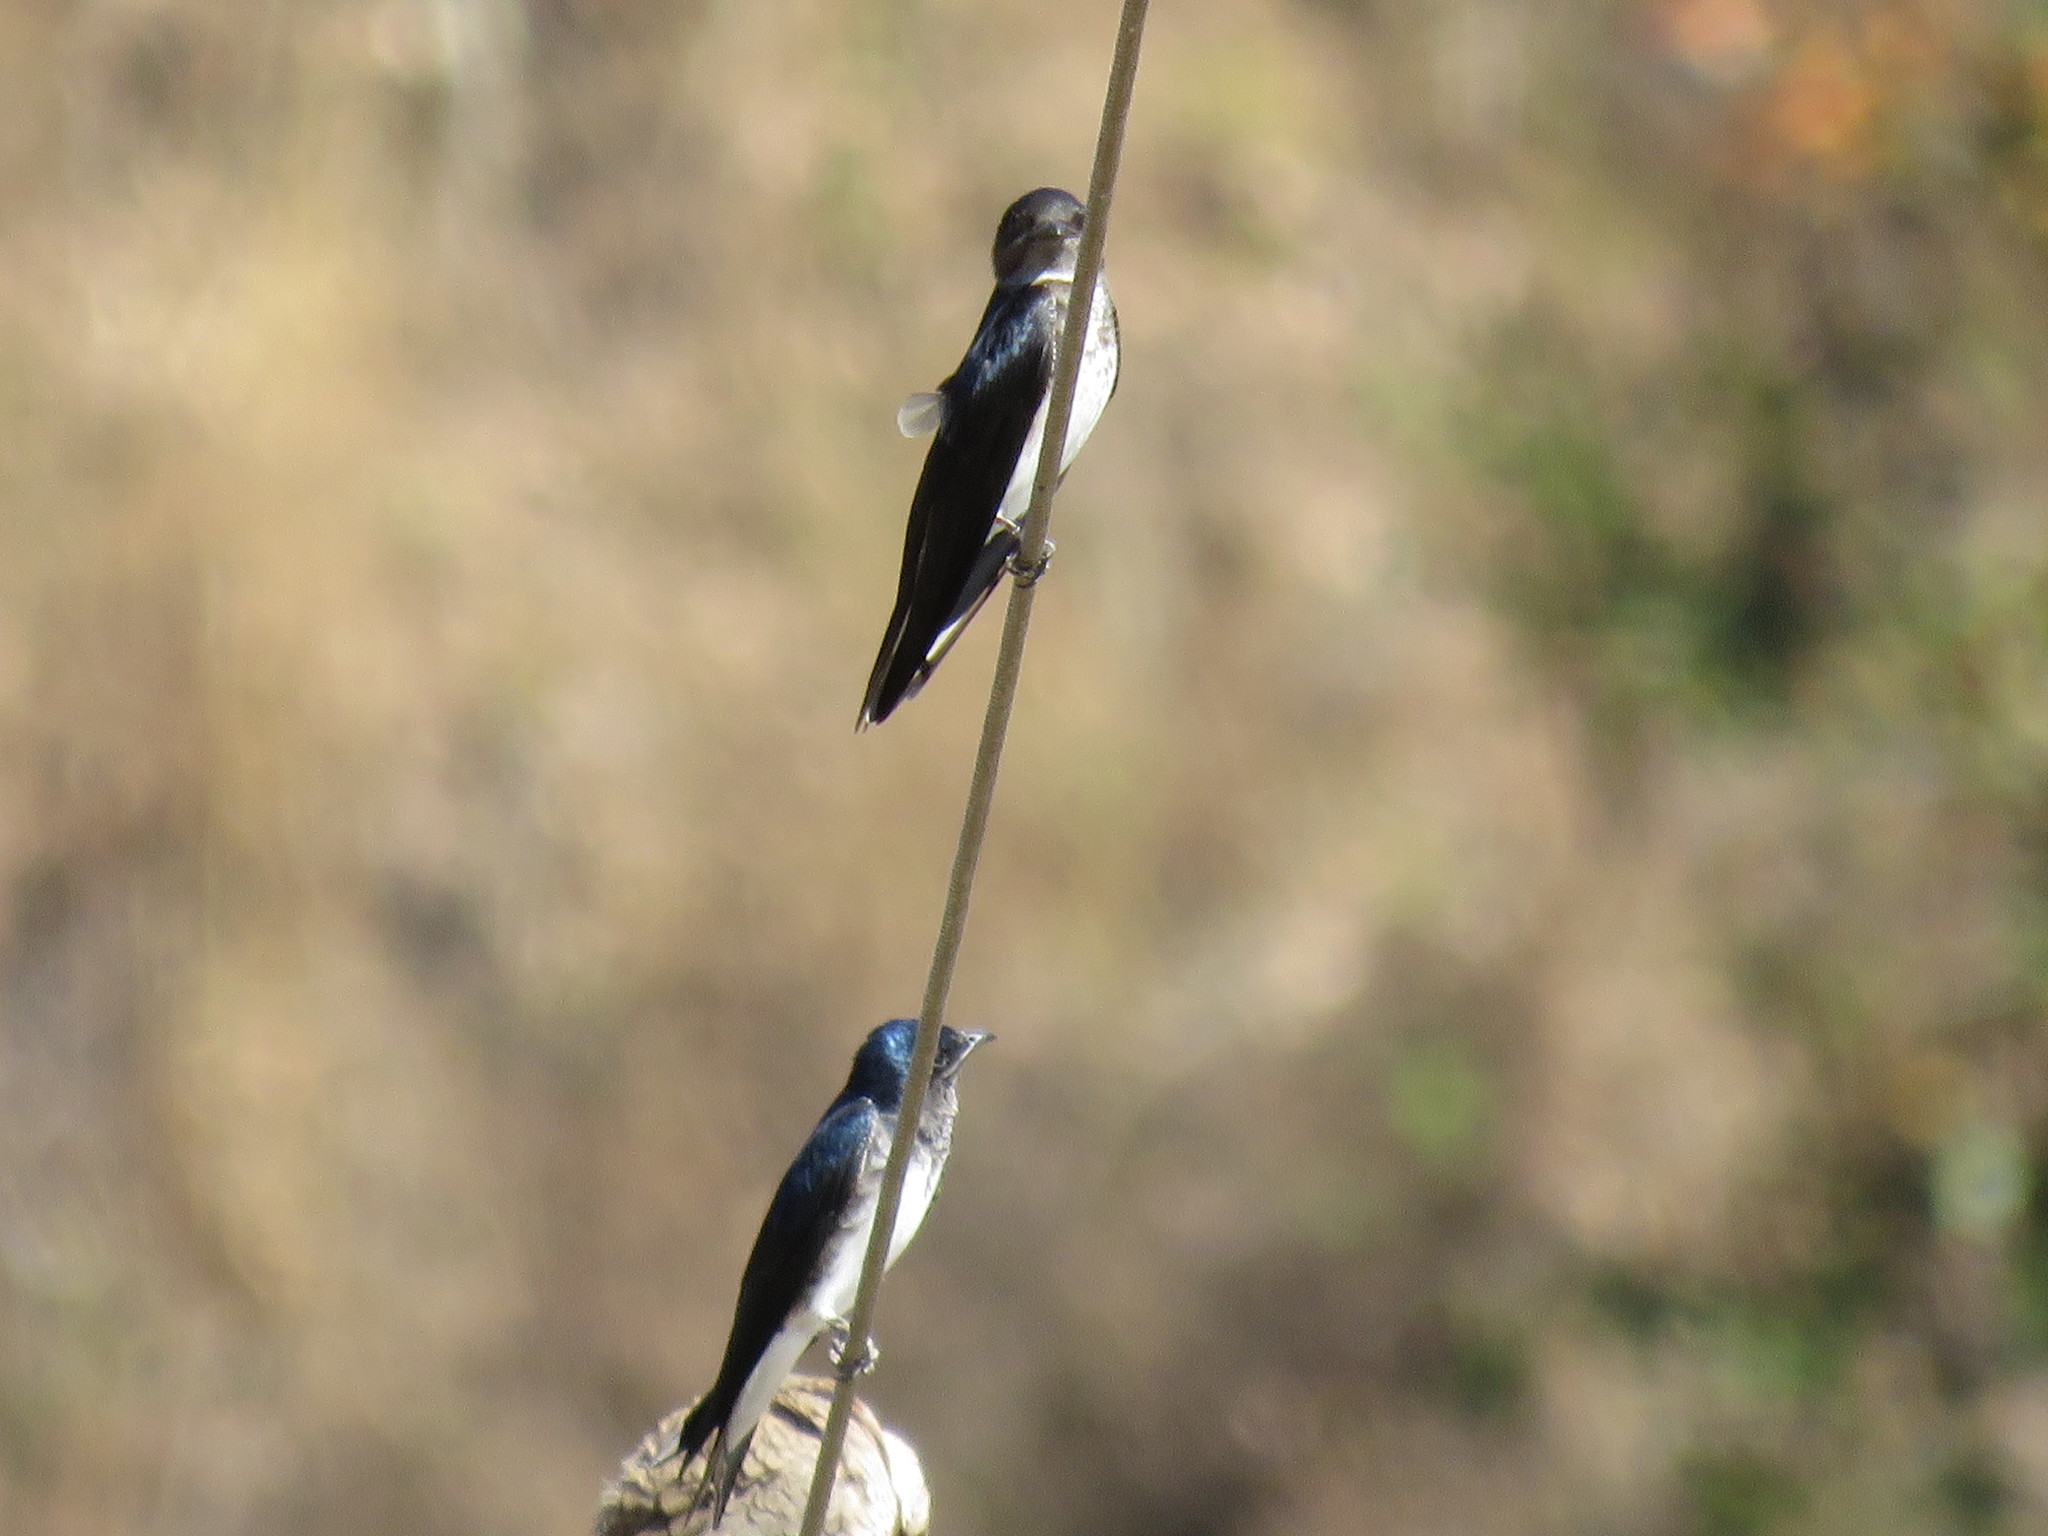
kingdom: Animalia
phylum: Chordata
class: Aves
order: Passeriformes
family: Hirundinidae
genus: Progne
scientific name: Progne chalybea
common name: Grey-breasted martin
